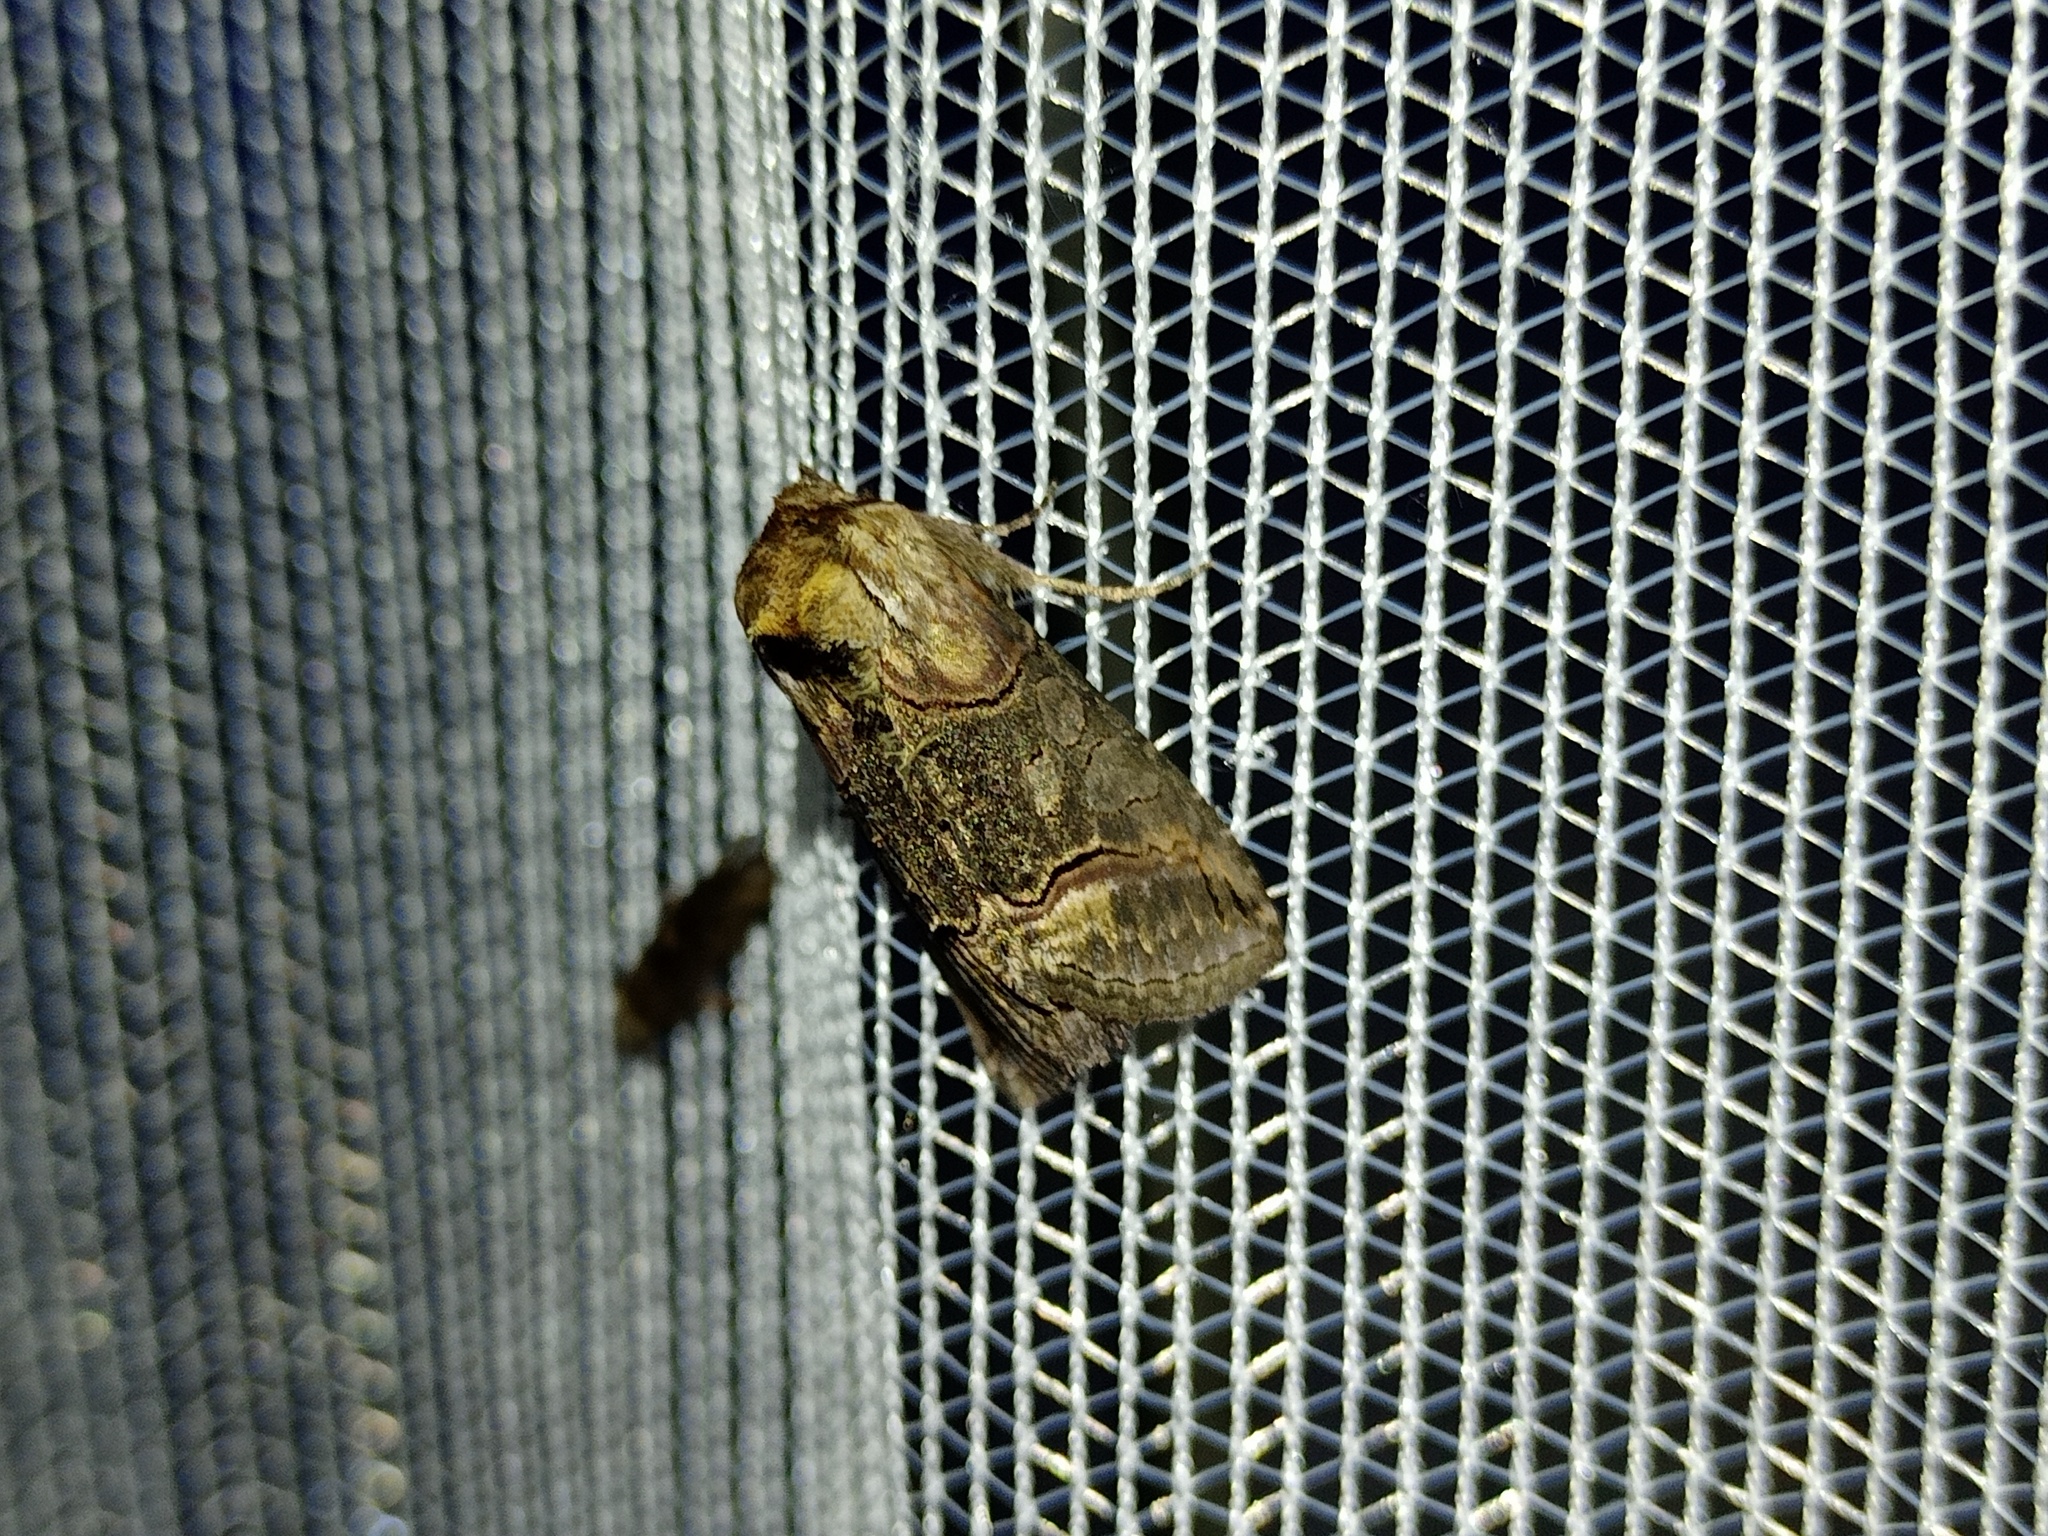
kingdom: Animalia
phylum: Arthropoda
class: Insecta
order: Lepidoptera
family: Noctuidae
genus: Abrostola
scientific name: Abrostola triplasia
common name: Dark spectacle
